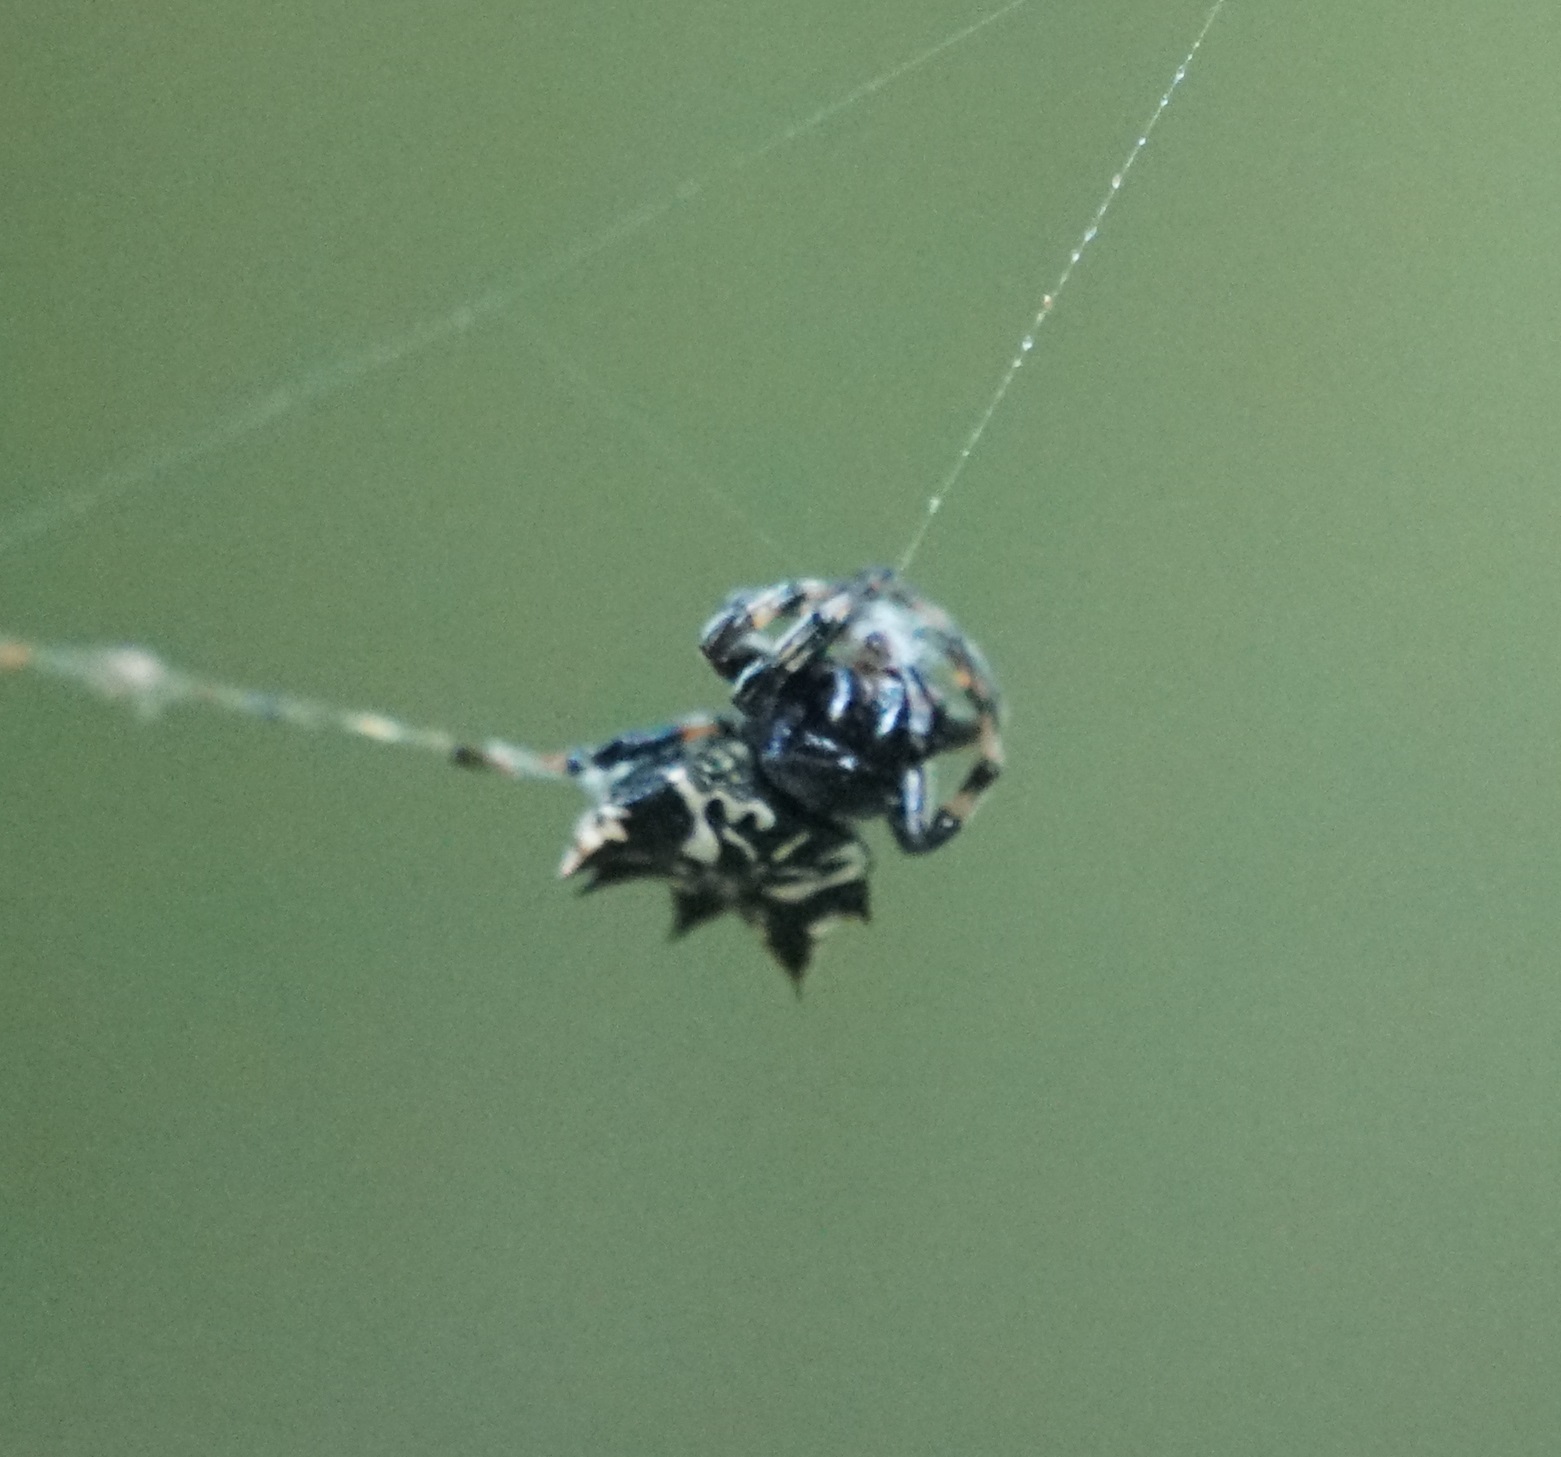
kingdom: Animalia
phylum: Arthropoda
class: Arachnida
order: Araneae
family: Araneidae
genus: Gasteracantha
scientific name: Gasteracantha sacerdotalis
